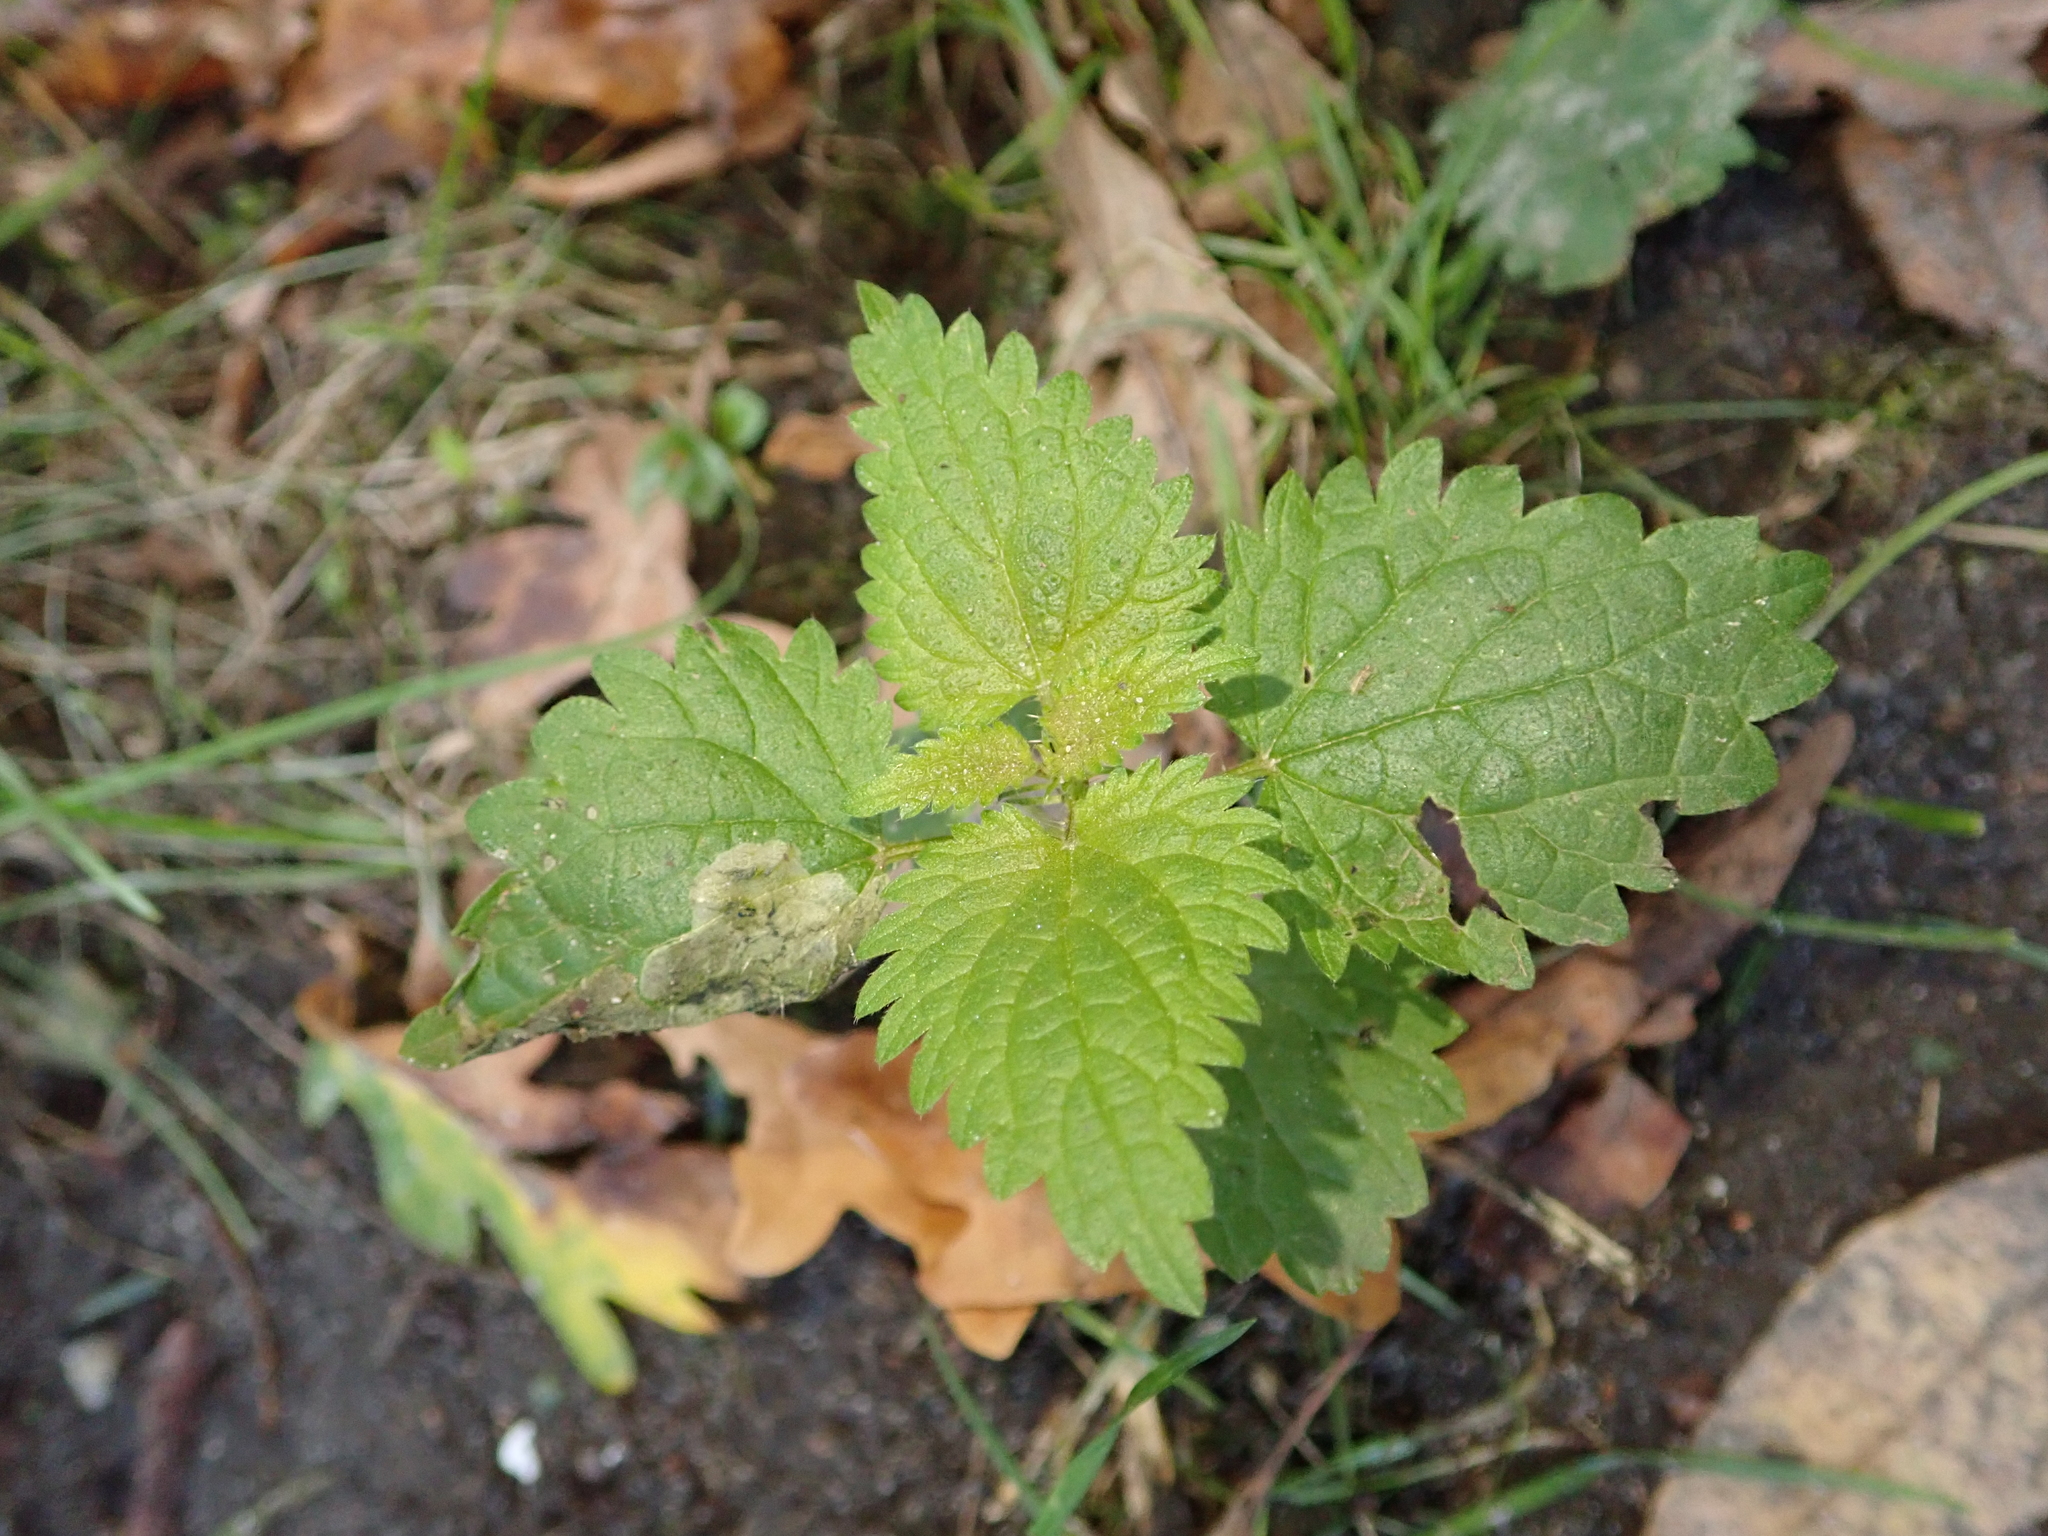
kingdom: Plantae
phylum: Tracheophyta
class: Magnoliopsida
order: Rosales
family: Urticaceae
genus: Urtica
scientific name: Urtica dioica
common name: Common nettle
